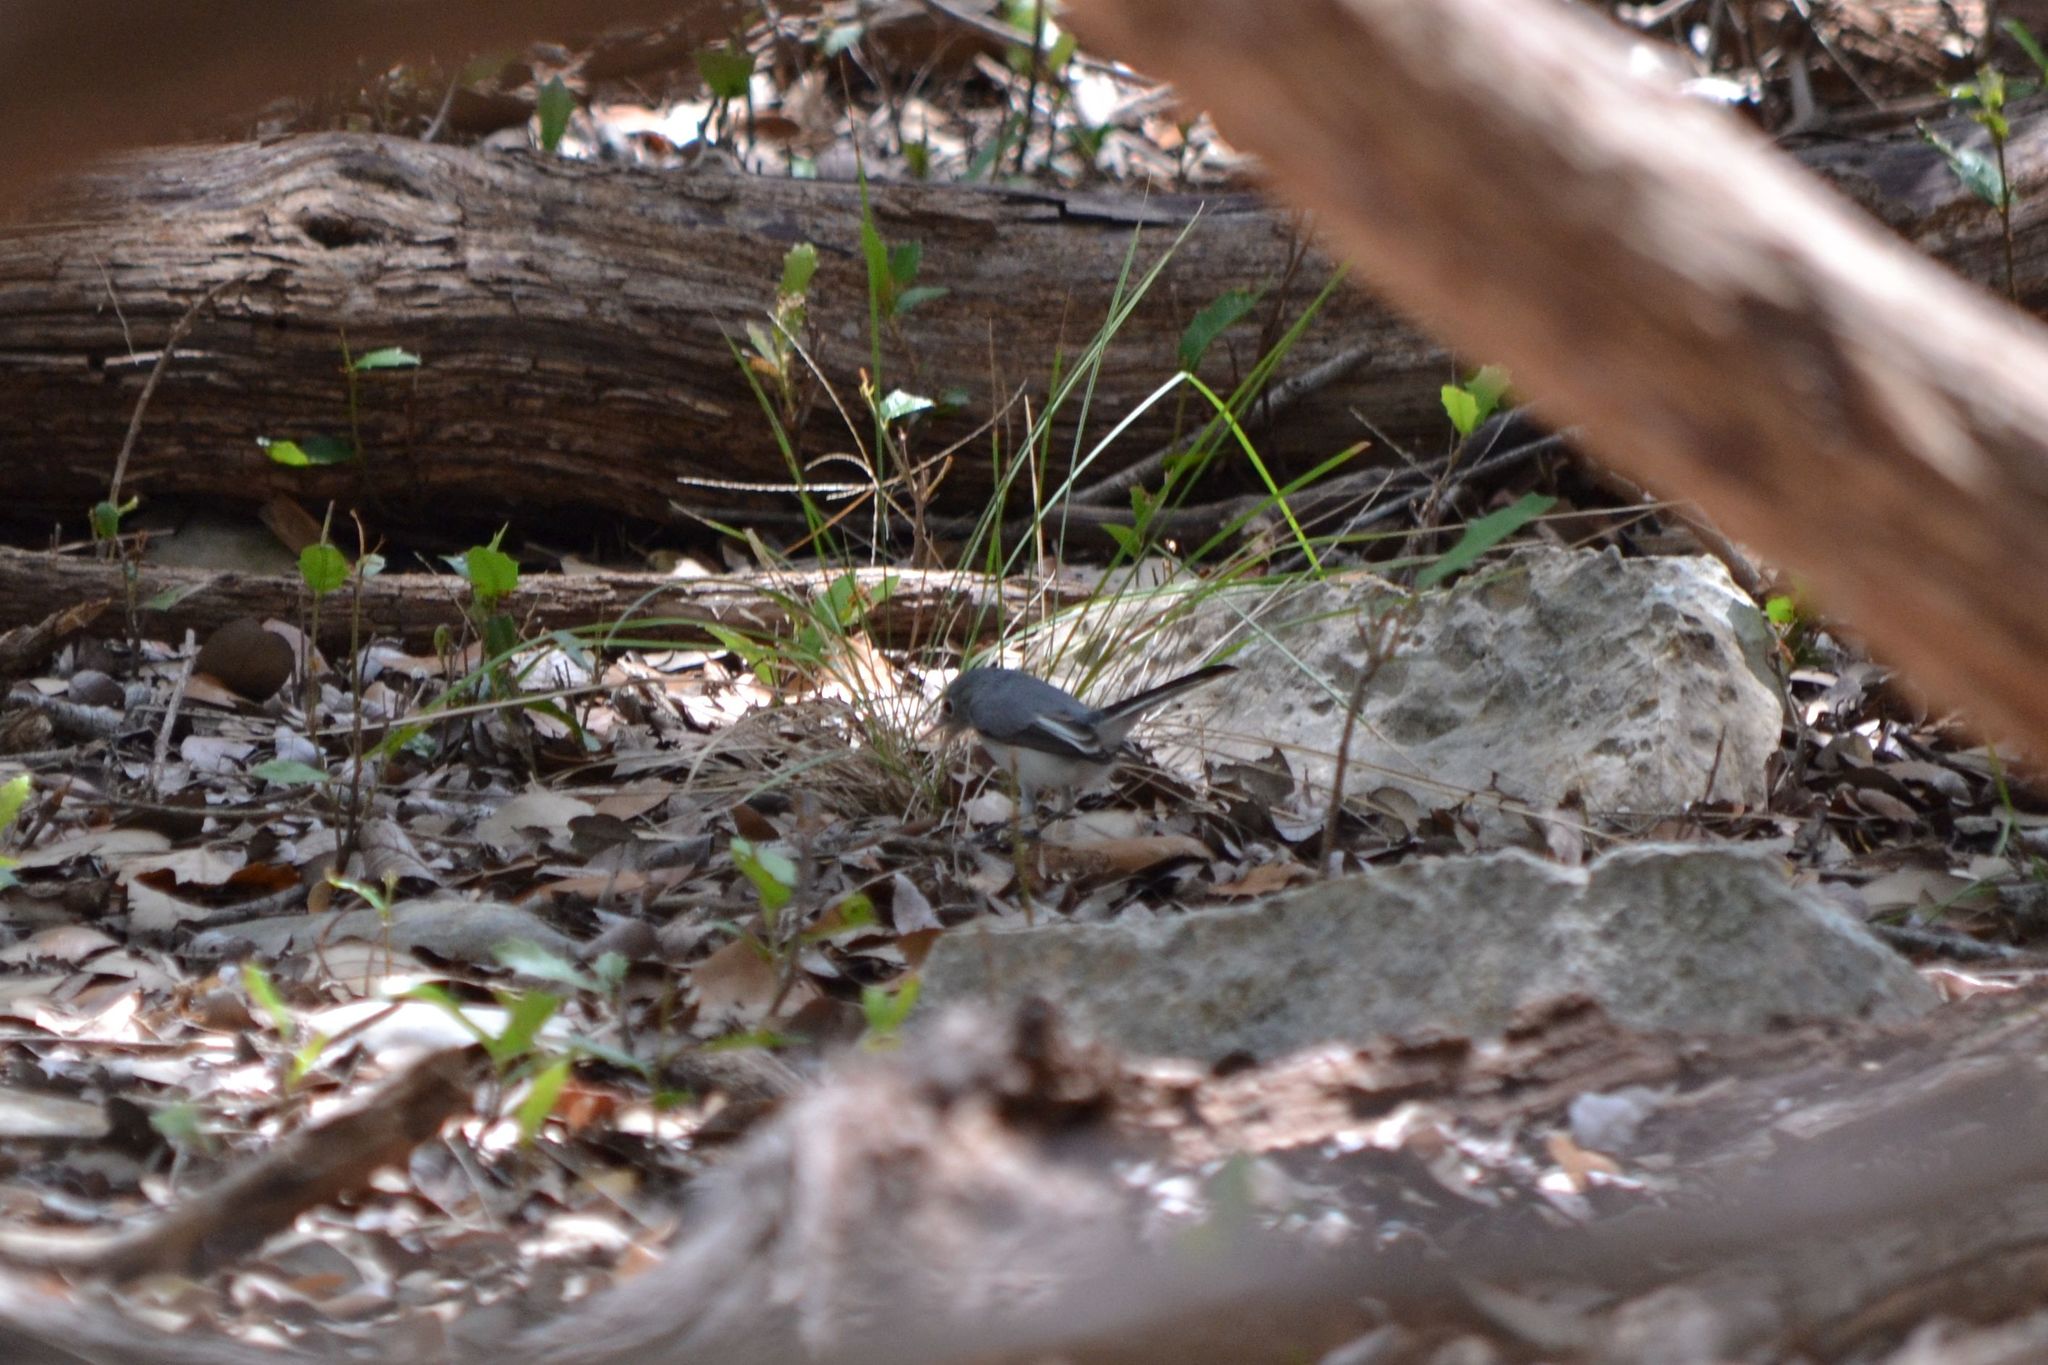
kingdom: Animalia
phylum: Chordata
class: Aves
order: Passeriformes
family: Polioptilidae
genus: Polioptila
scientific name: Polioptila caerulea
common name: Blue-gray gnatcatcher
